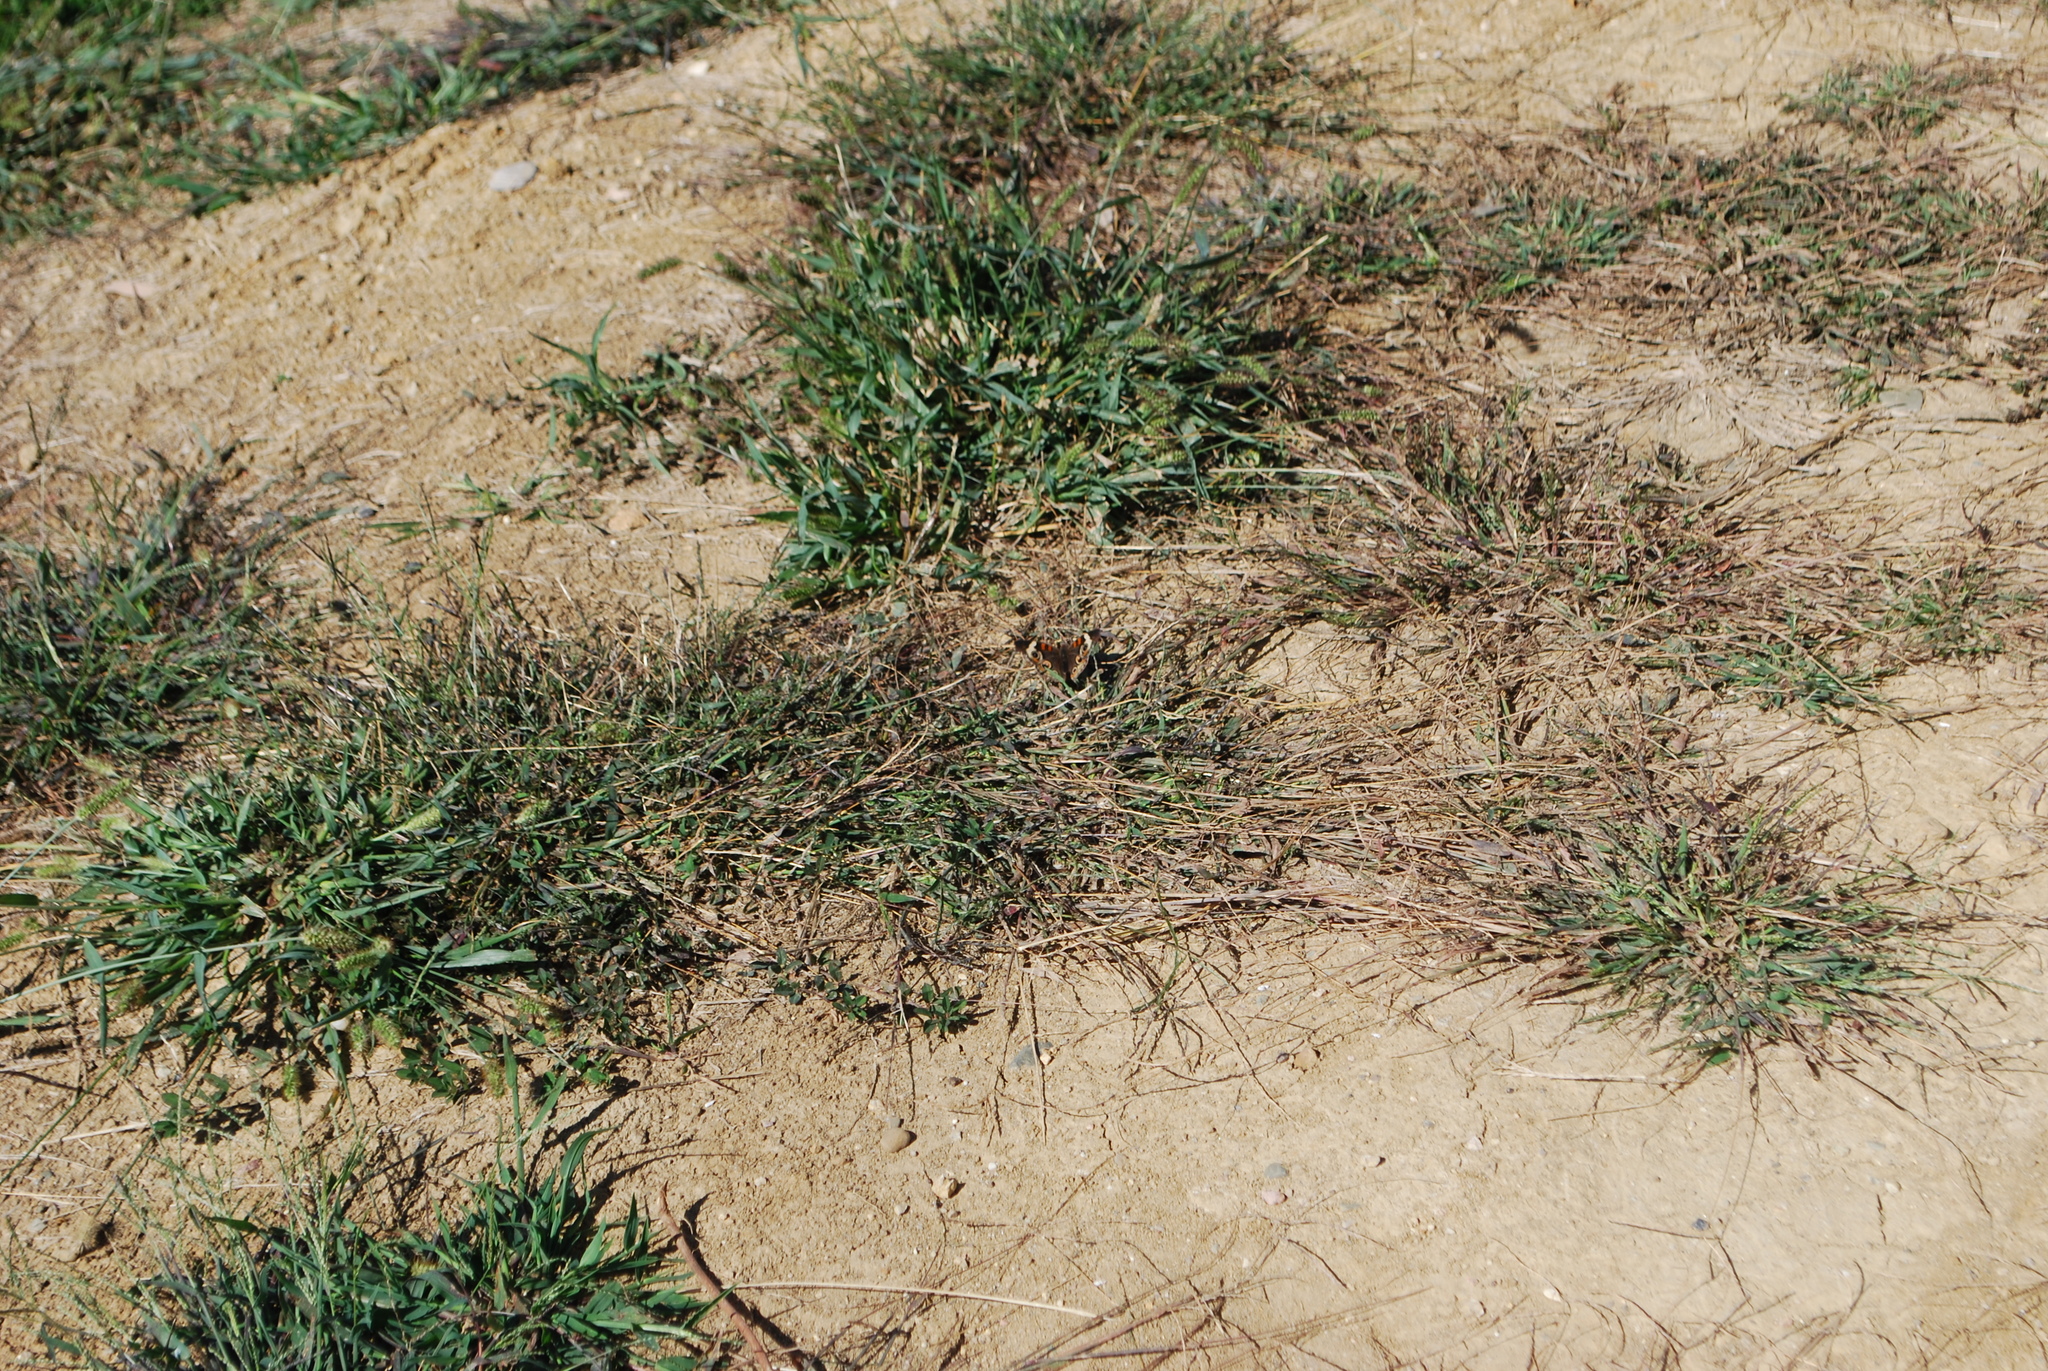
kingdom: Animalia
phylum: Arthropoda
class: Insecta
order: Lepidoptera
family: Nymphalidae
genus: Junonia
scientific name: Junonia coenia
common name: Common buckeye
